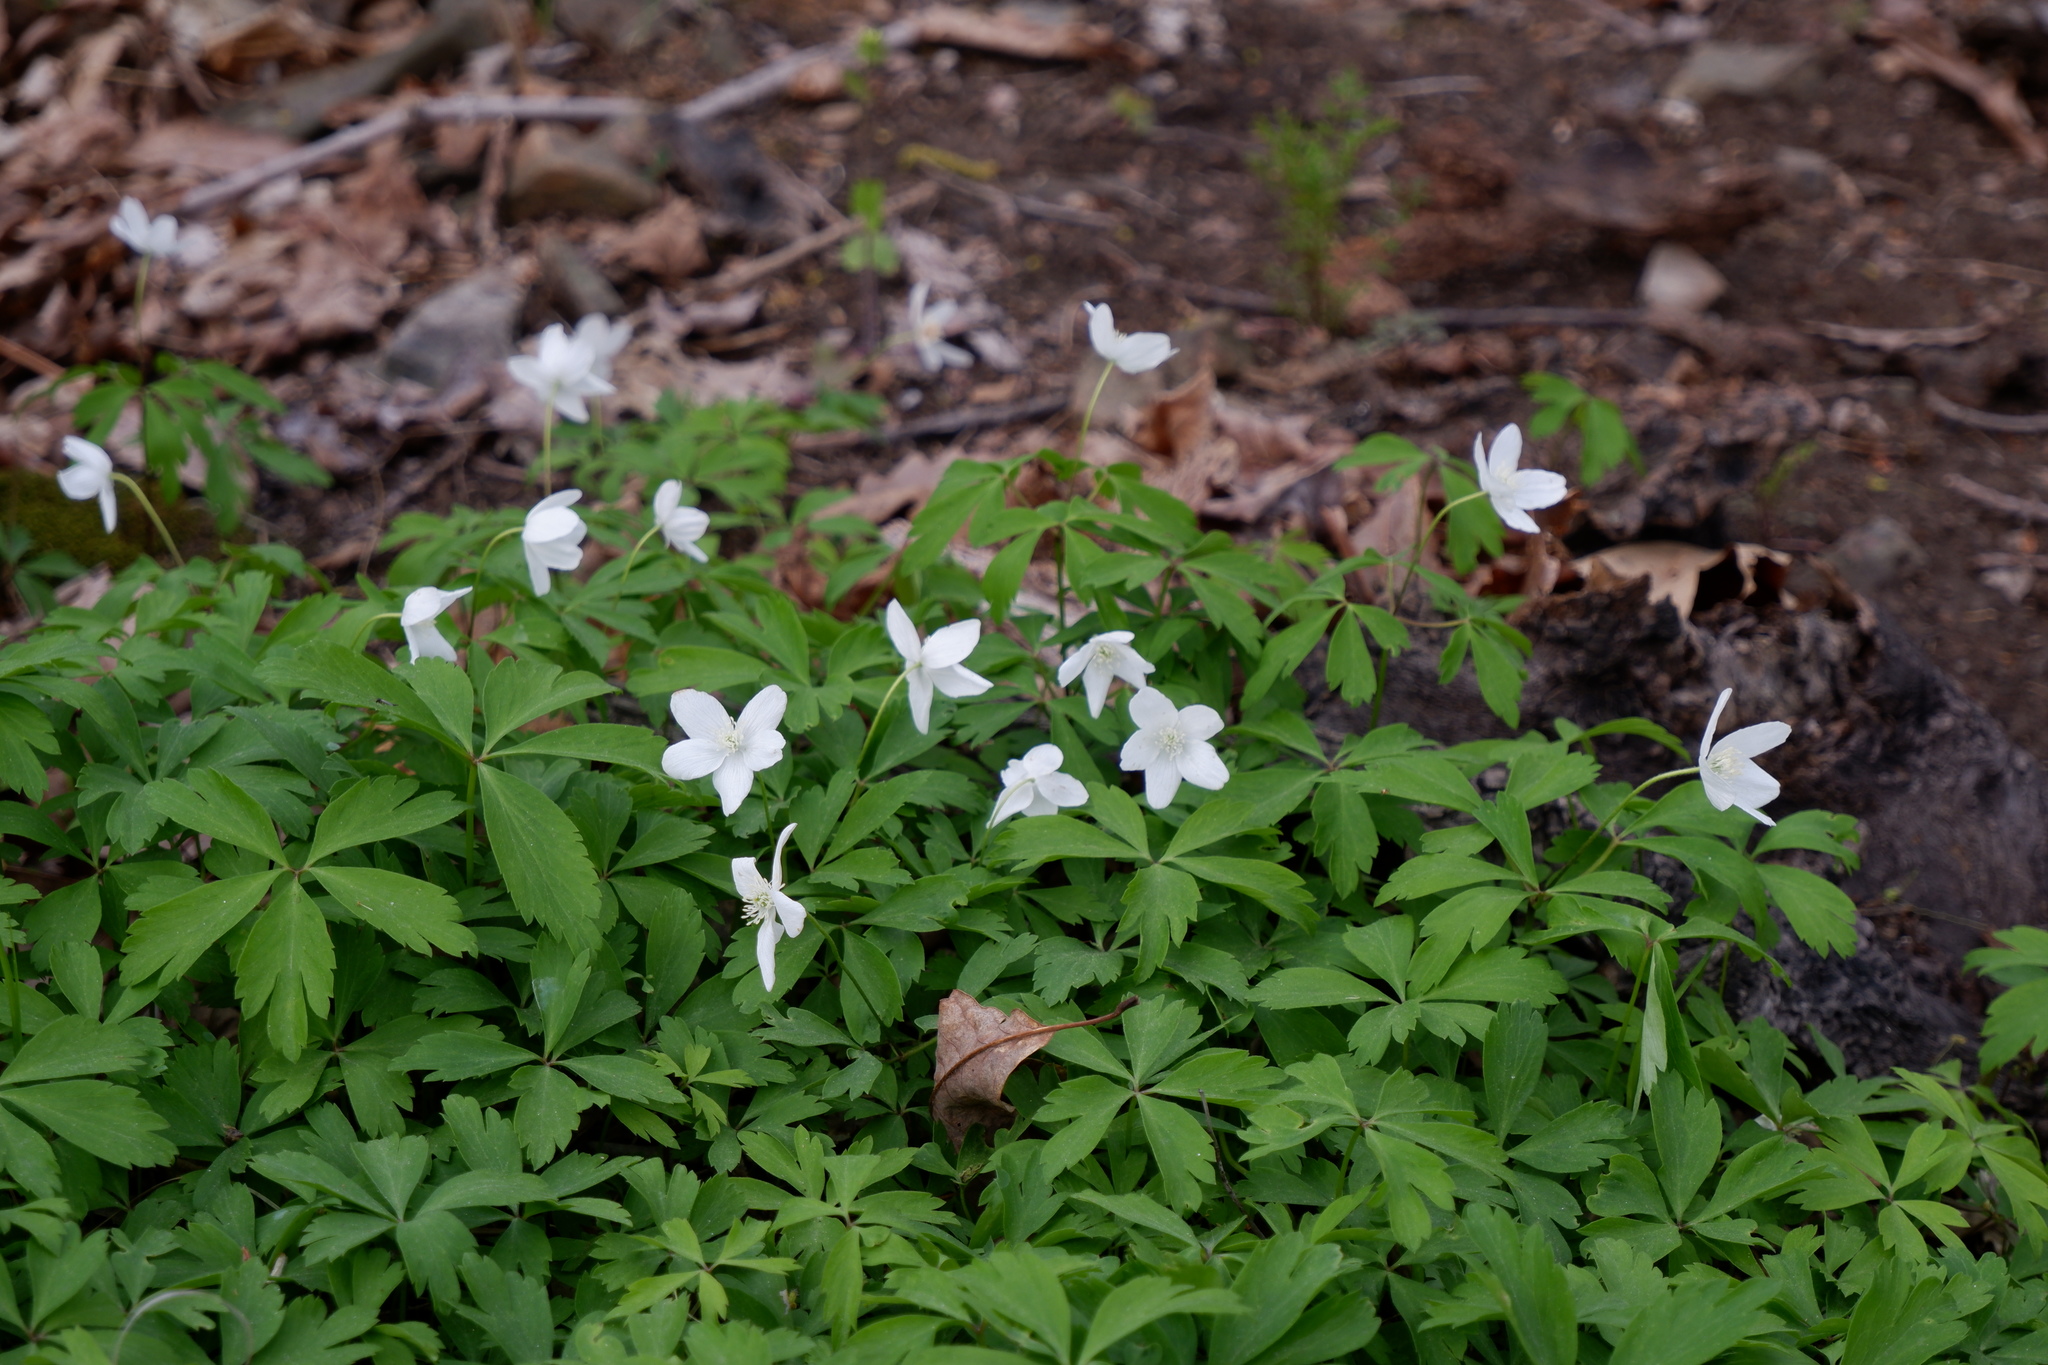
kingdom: Plantae
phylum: Tracheophyta
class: Magnoliopsida
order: Ranunculales
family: Ranunculaceae
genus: Anemone
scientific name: Anemone quinquefolia
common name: Wood anemone
